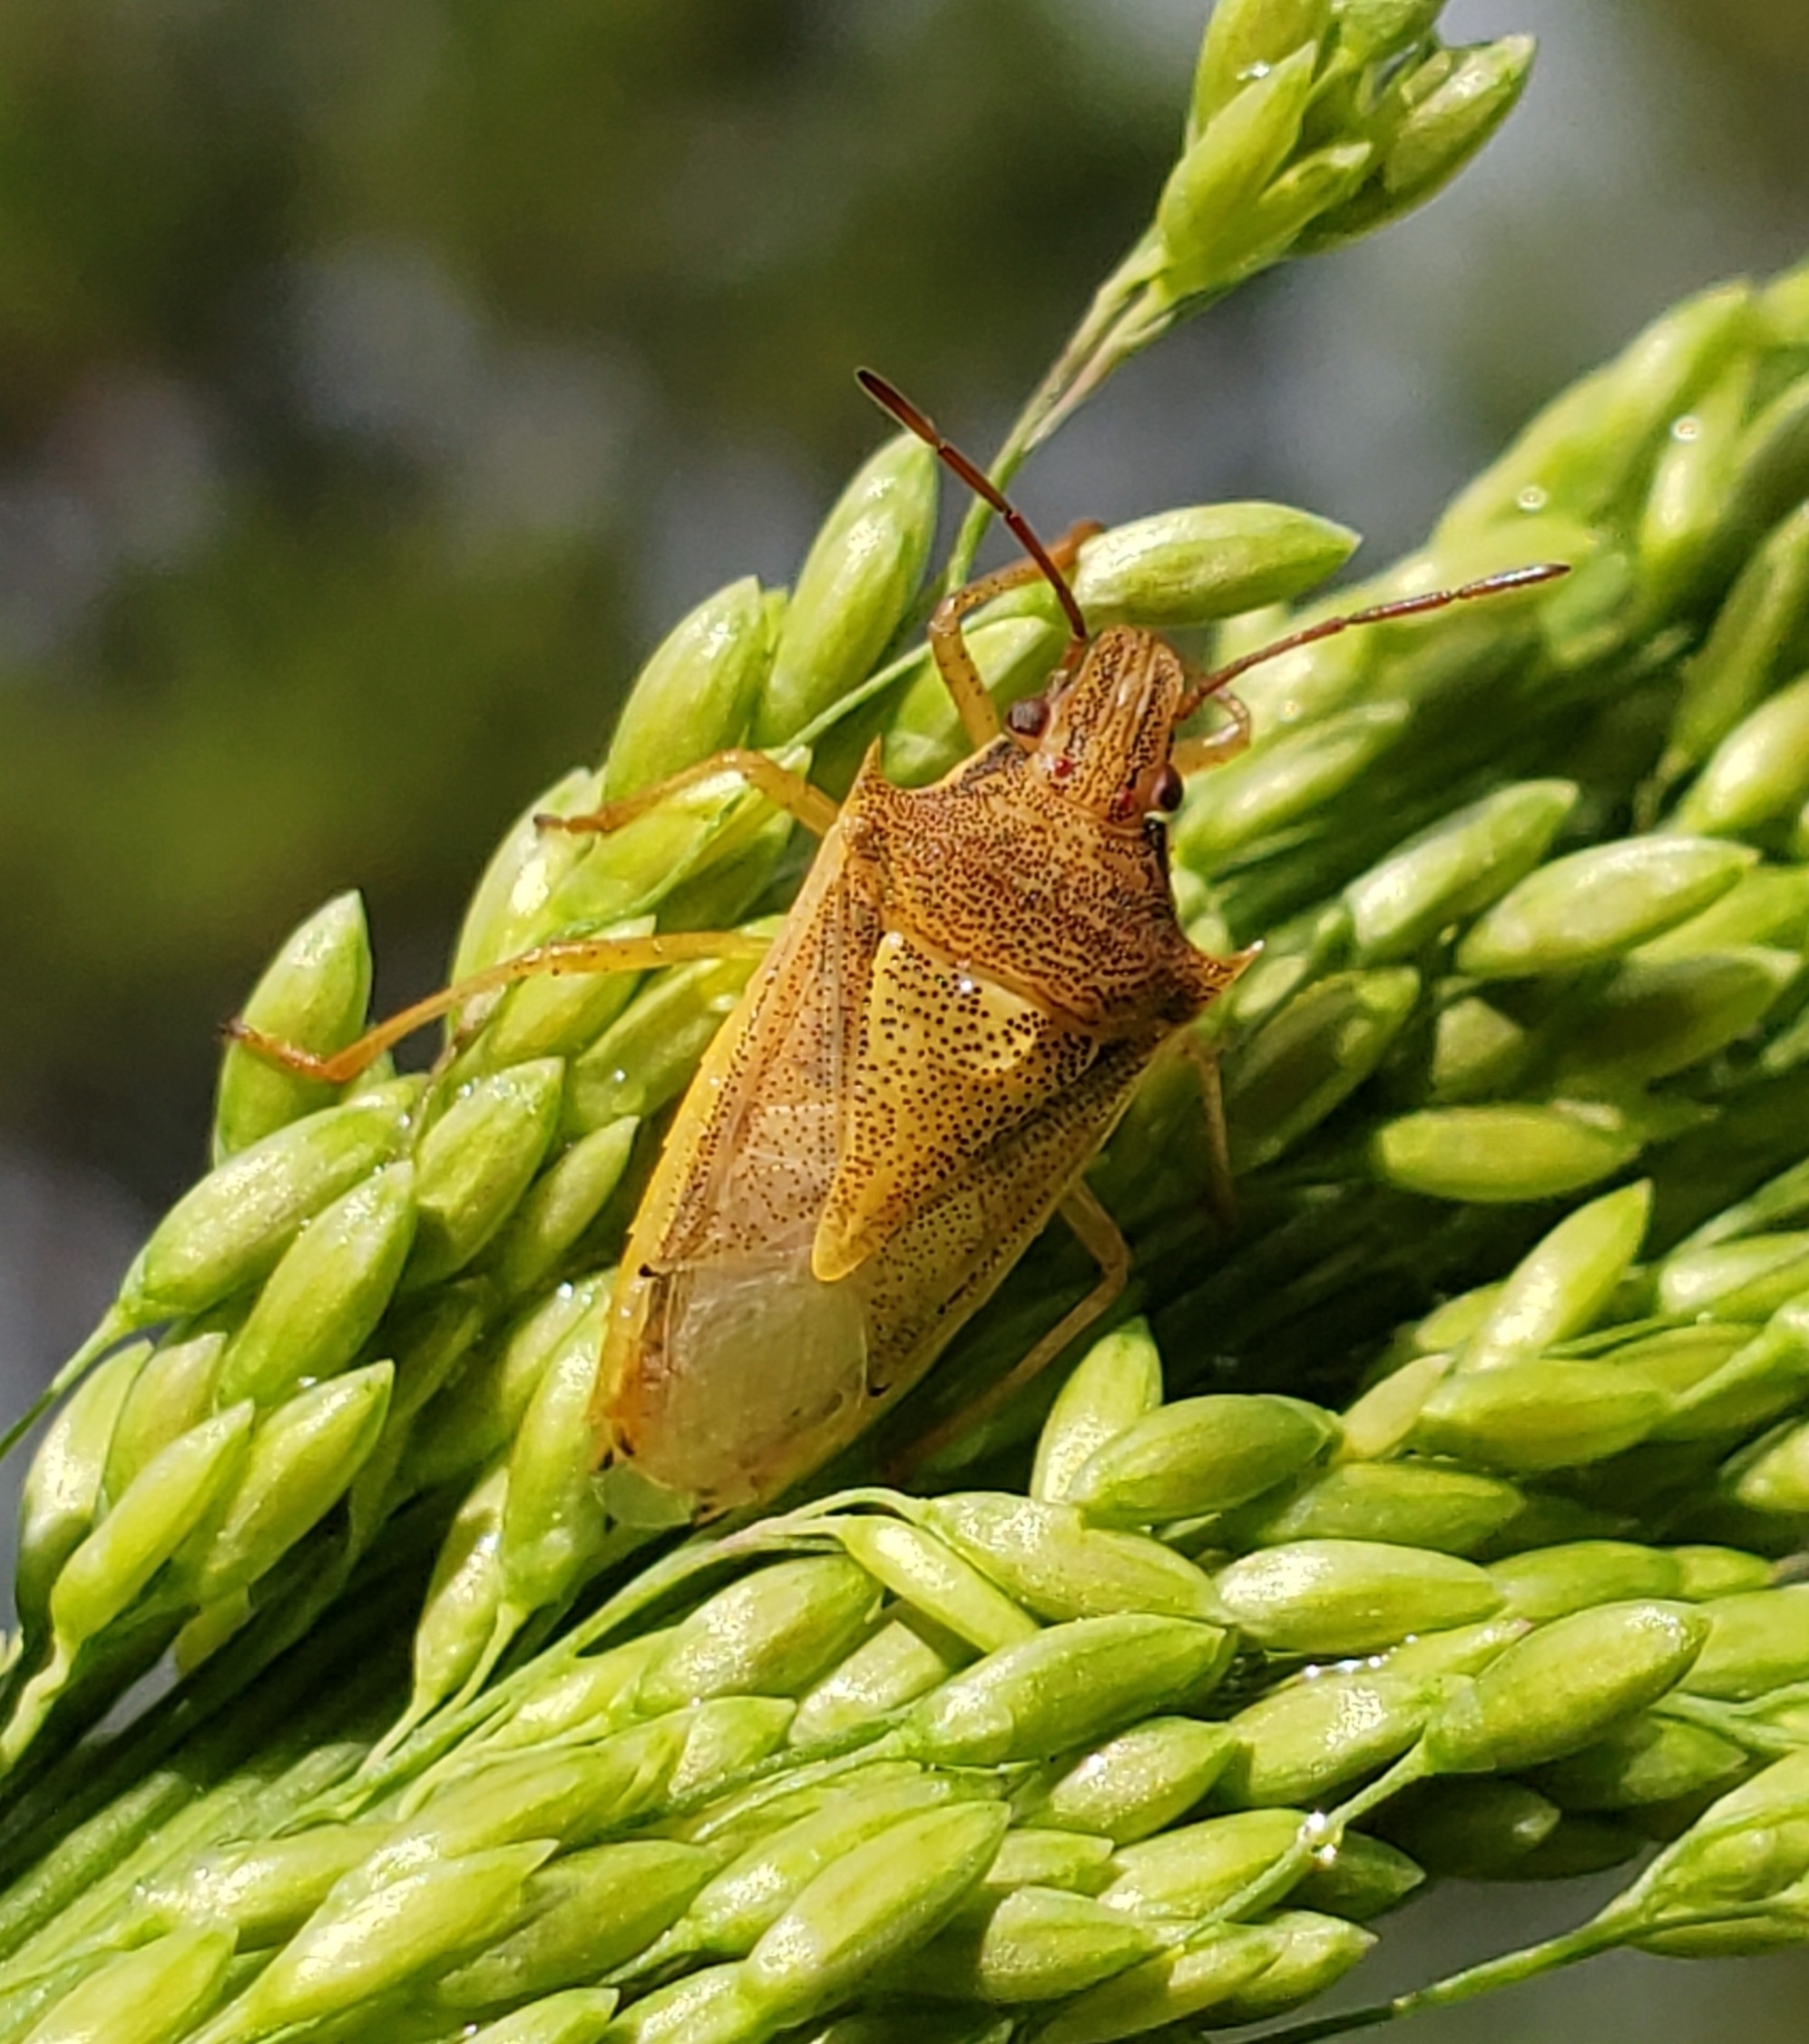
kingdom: Animalia
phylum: Arthropoda
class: Insecta
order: Hemiptera
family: Pentatomidae
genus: Oebalus
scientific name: Oebalus pugnax
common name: Rice stink bug
